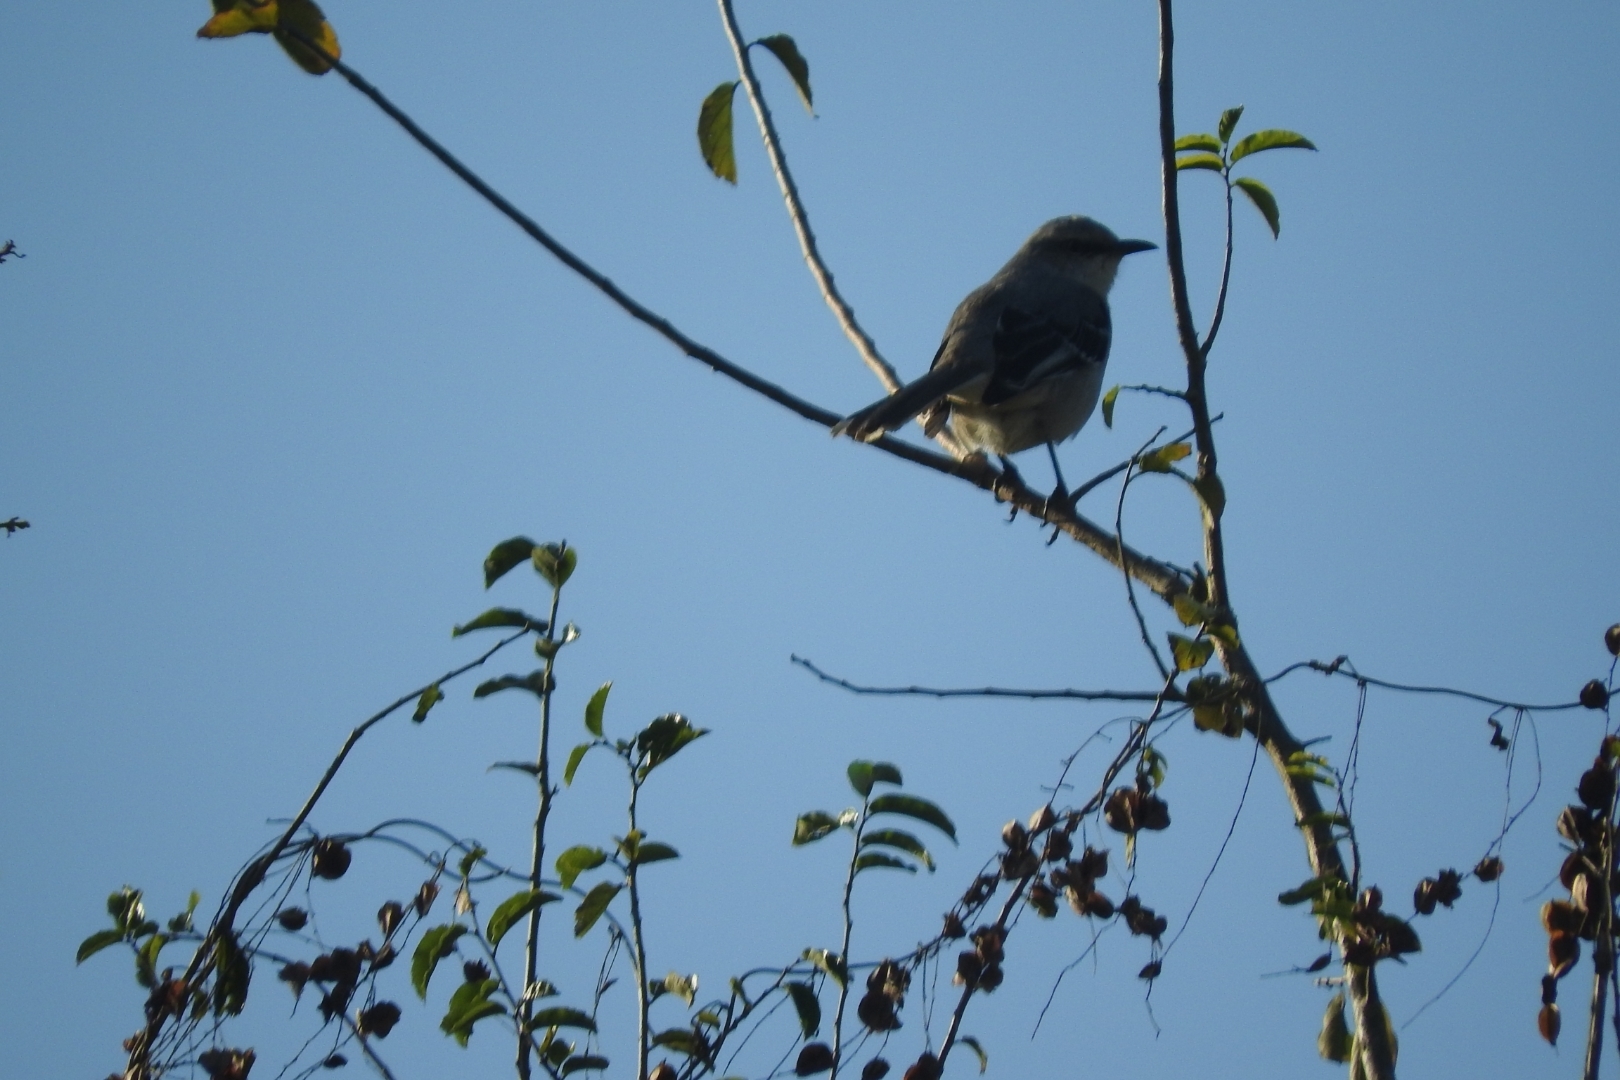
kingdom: Animalia
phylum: Chordata
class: Aves
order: Passeriformes
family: Mimidae
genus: Mimus
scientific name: Mimus gilvus
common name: Tropical mockingbird
